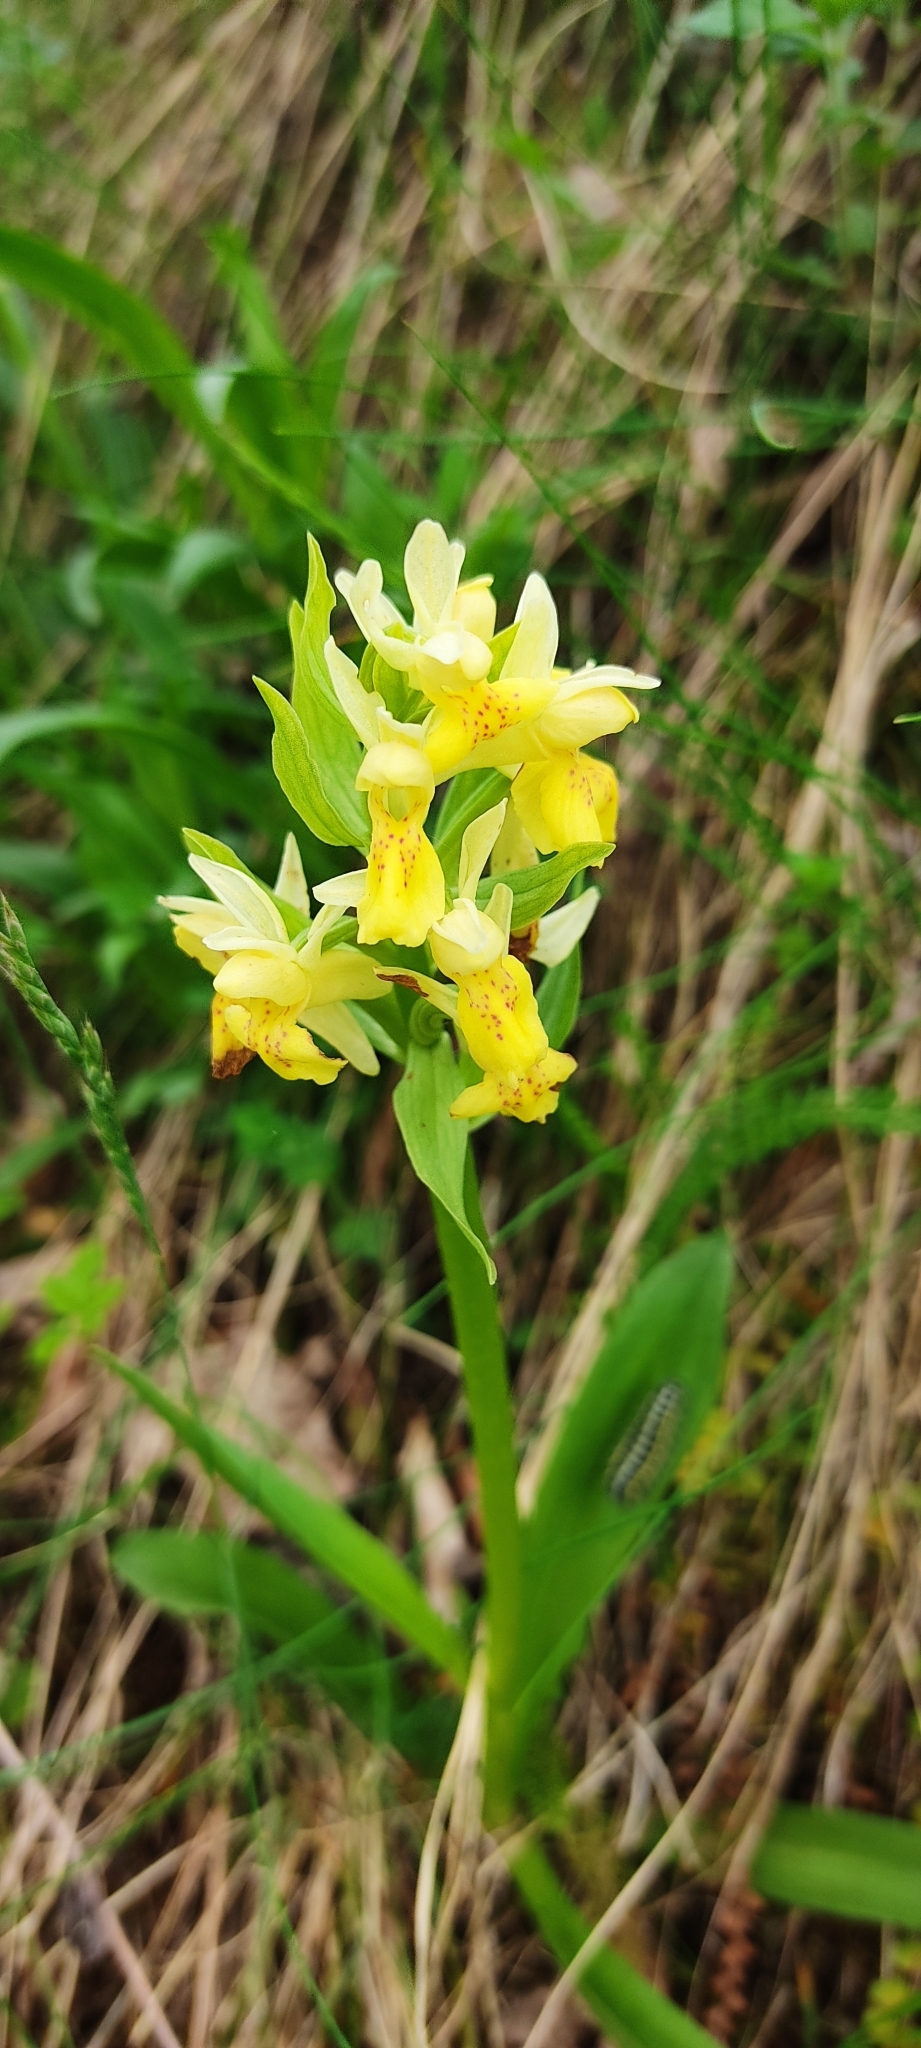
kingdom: Plantae
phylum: Tracheophyta
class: Liliopsida
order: Asparagales
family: Orchidaceae
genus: Dactylorhiza
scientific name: Dactylorhiza sambucina
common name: Elder-flowered orchid
